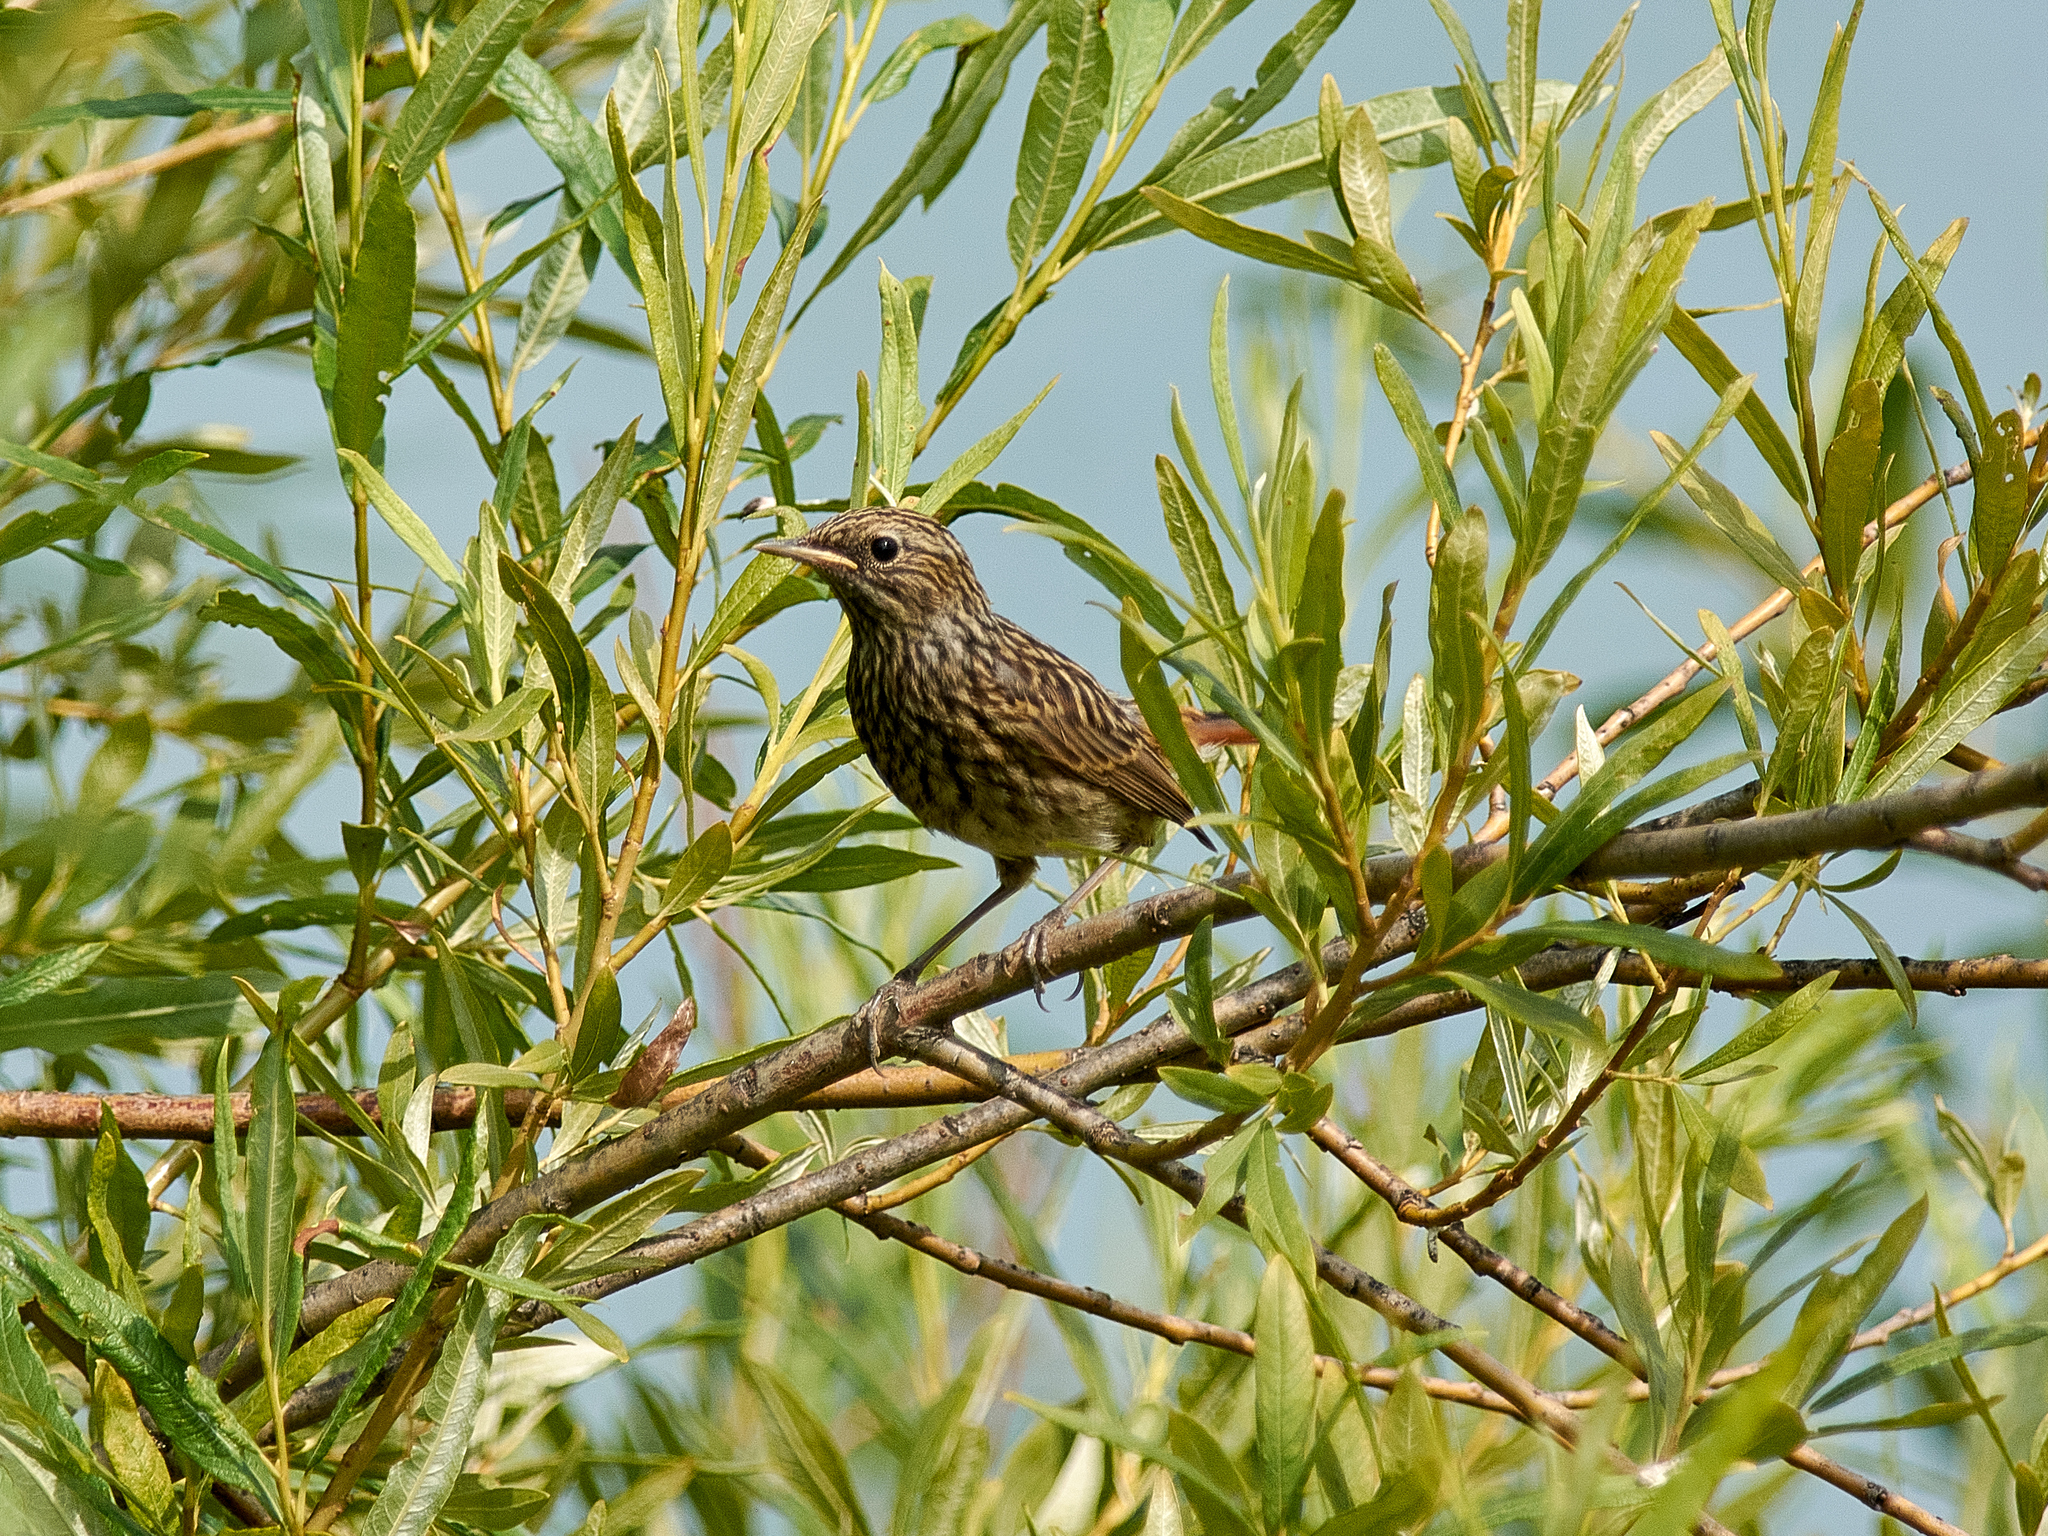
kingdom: Animalia
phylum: Chordata
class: Aves
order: Passeriformes
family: Muscicapidae
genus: Luscinia
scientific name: Luscinia svecica
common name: Bluethroat
